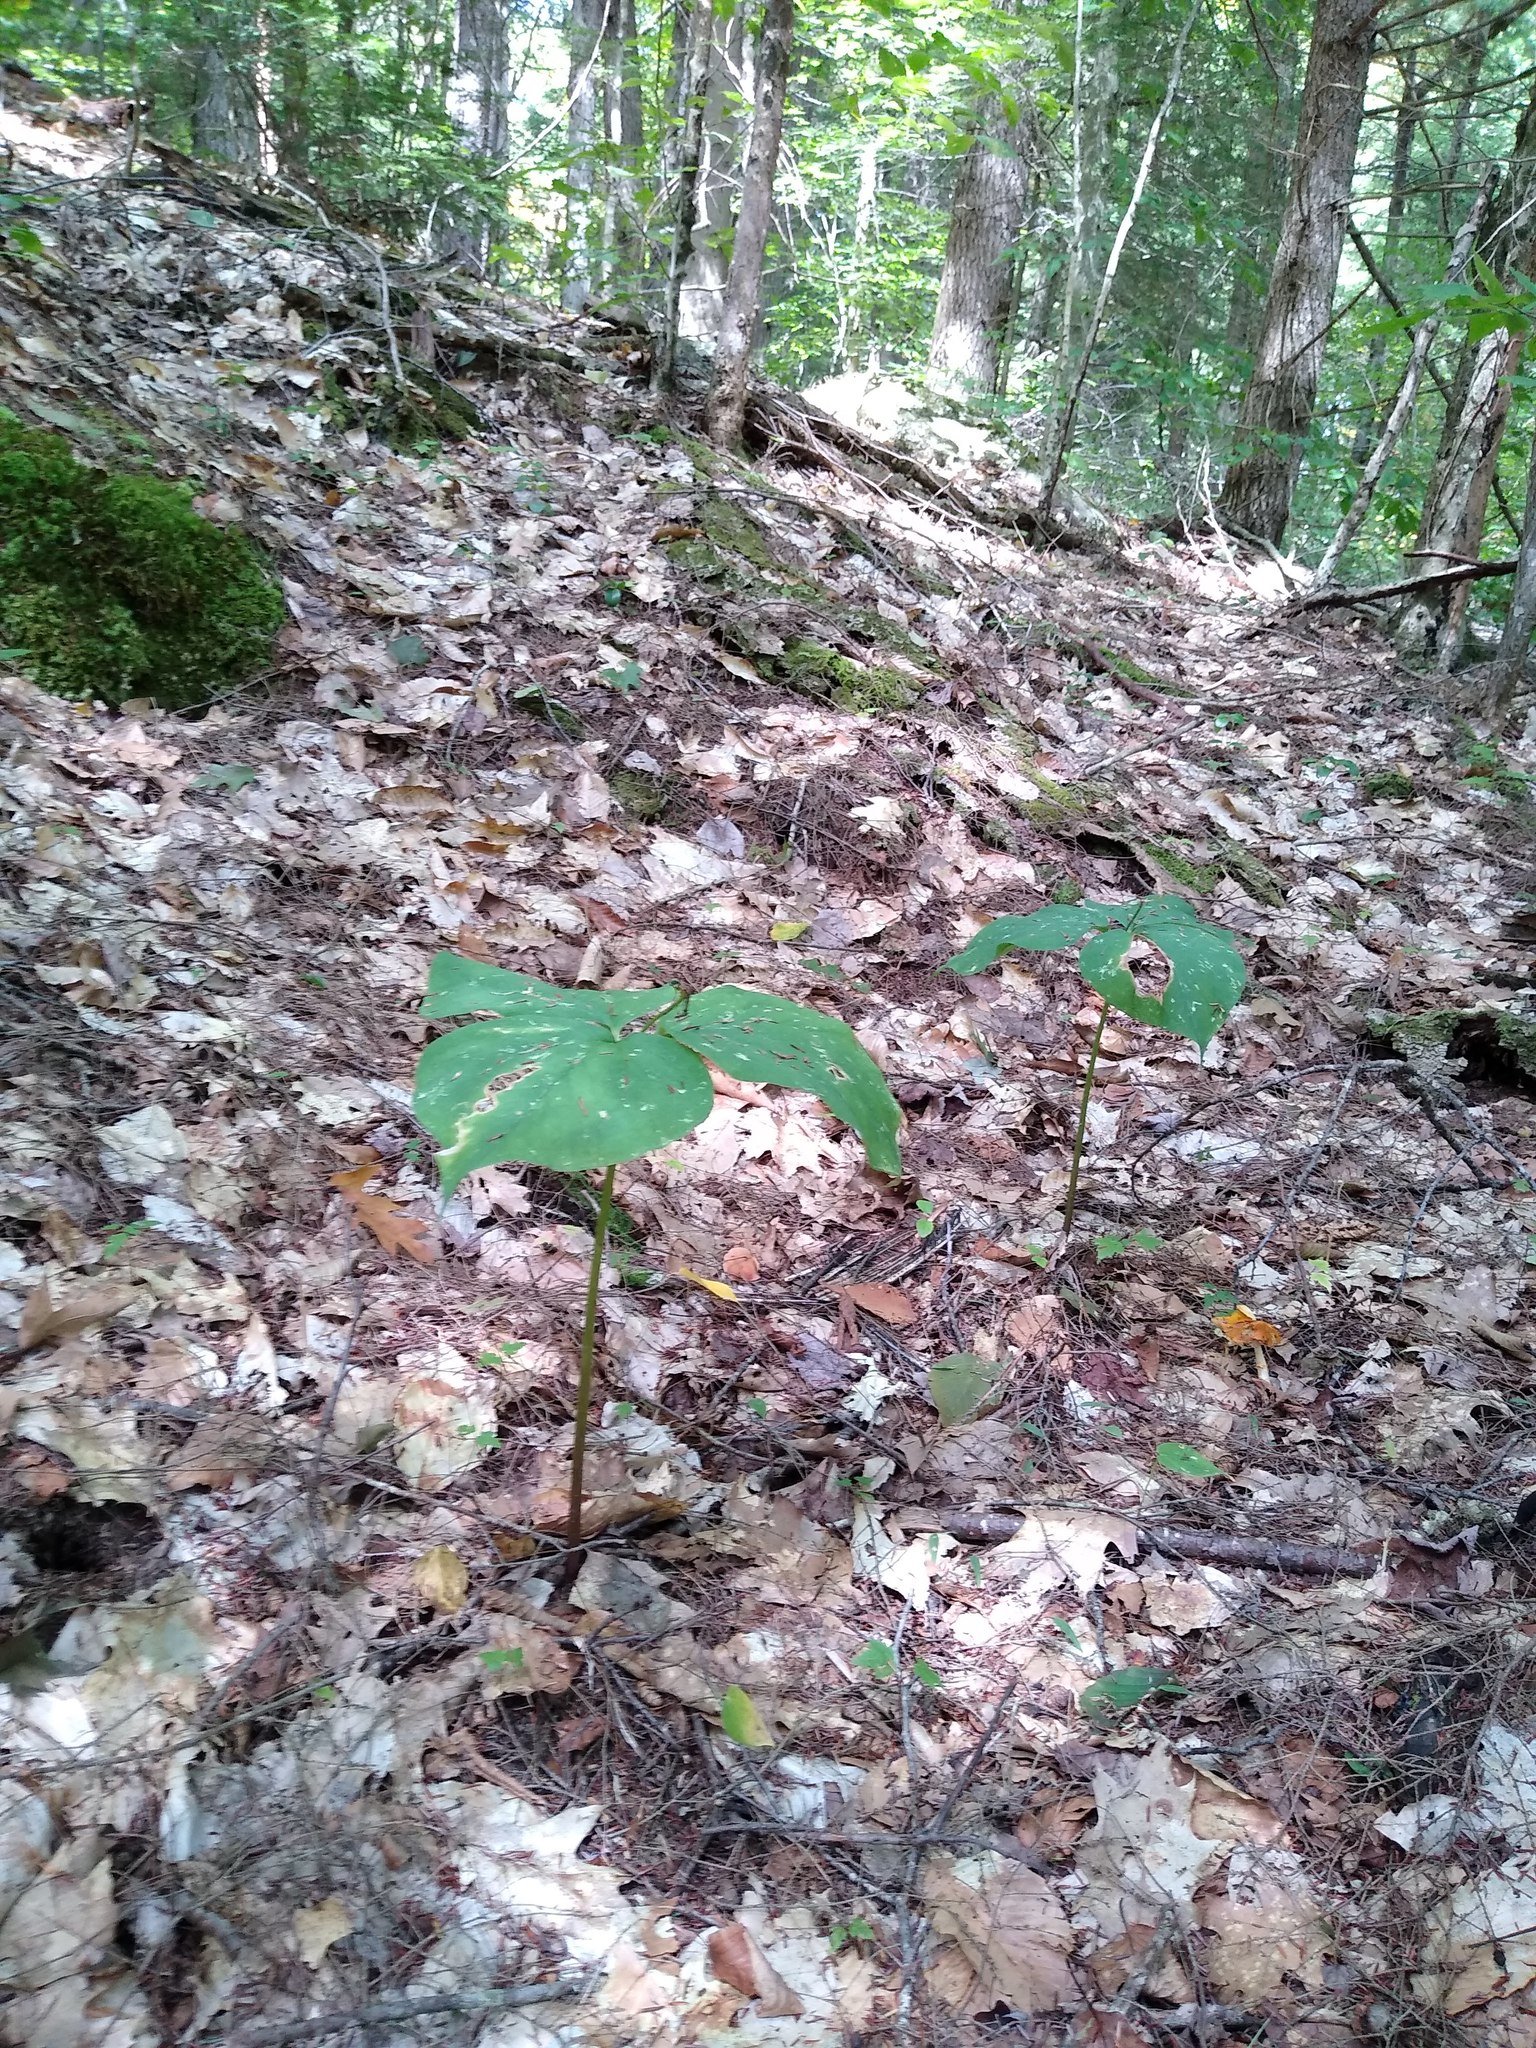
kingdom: Plantae
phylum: Tracheophyta
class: Liliopsida
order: Liliales
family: Melanthiaceae
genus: Trillium
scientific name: Trillium undulatum
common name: Paint trillium
